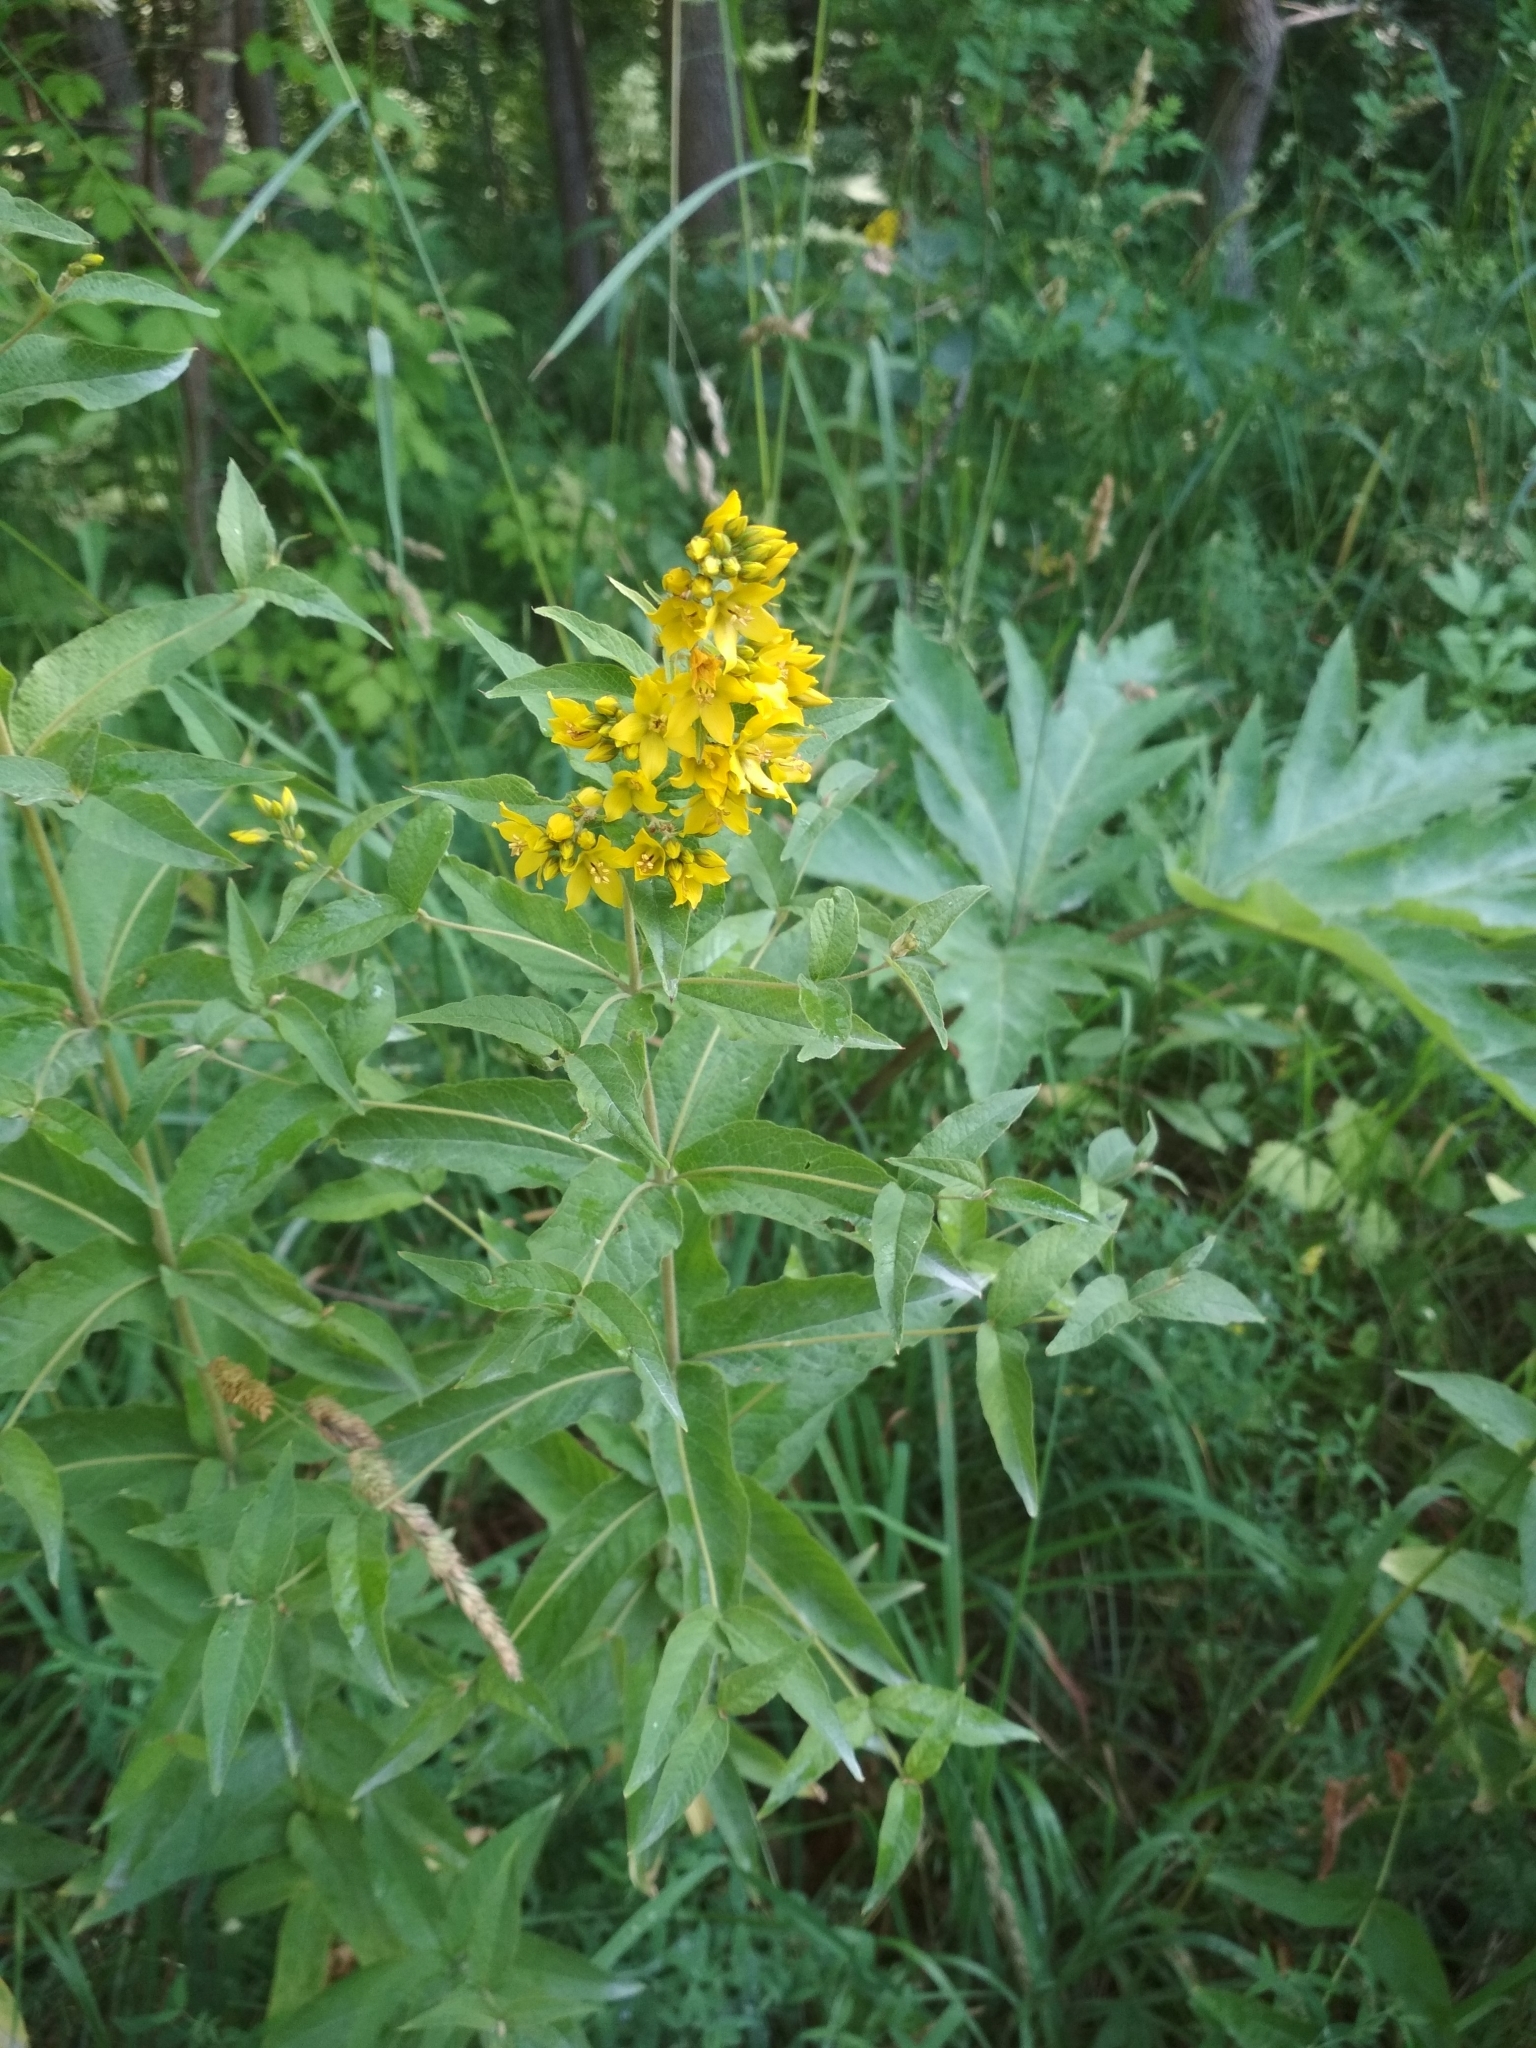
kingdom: Plantae
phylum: Tracheophyta
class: Magnoliopsida
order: Ericales
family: Primulaceae
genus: Lysimachia
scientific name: Lysimachia vulgaris
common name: Yellow loosestrife
